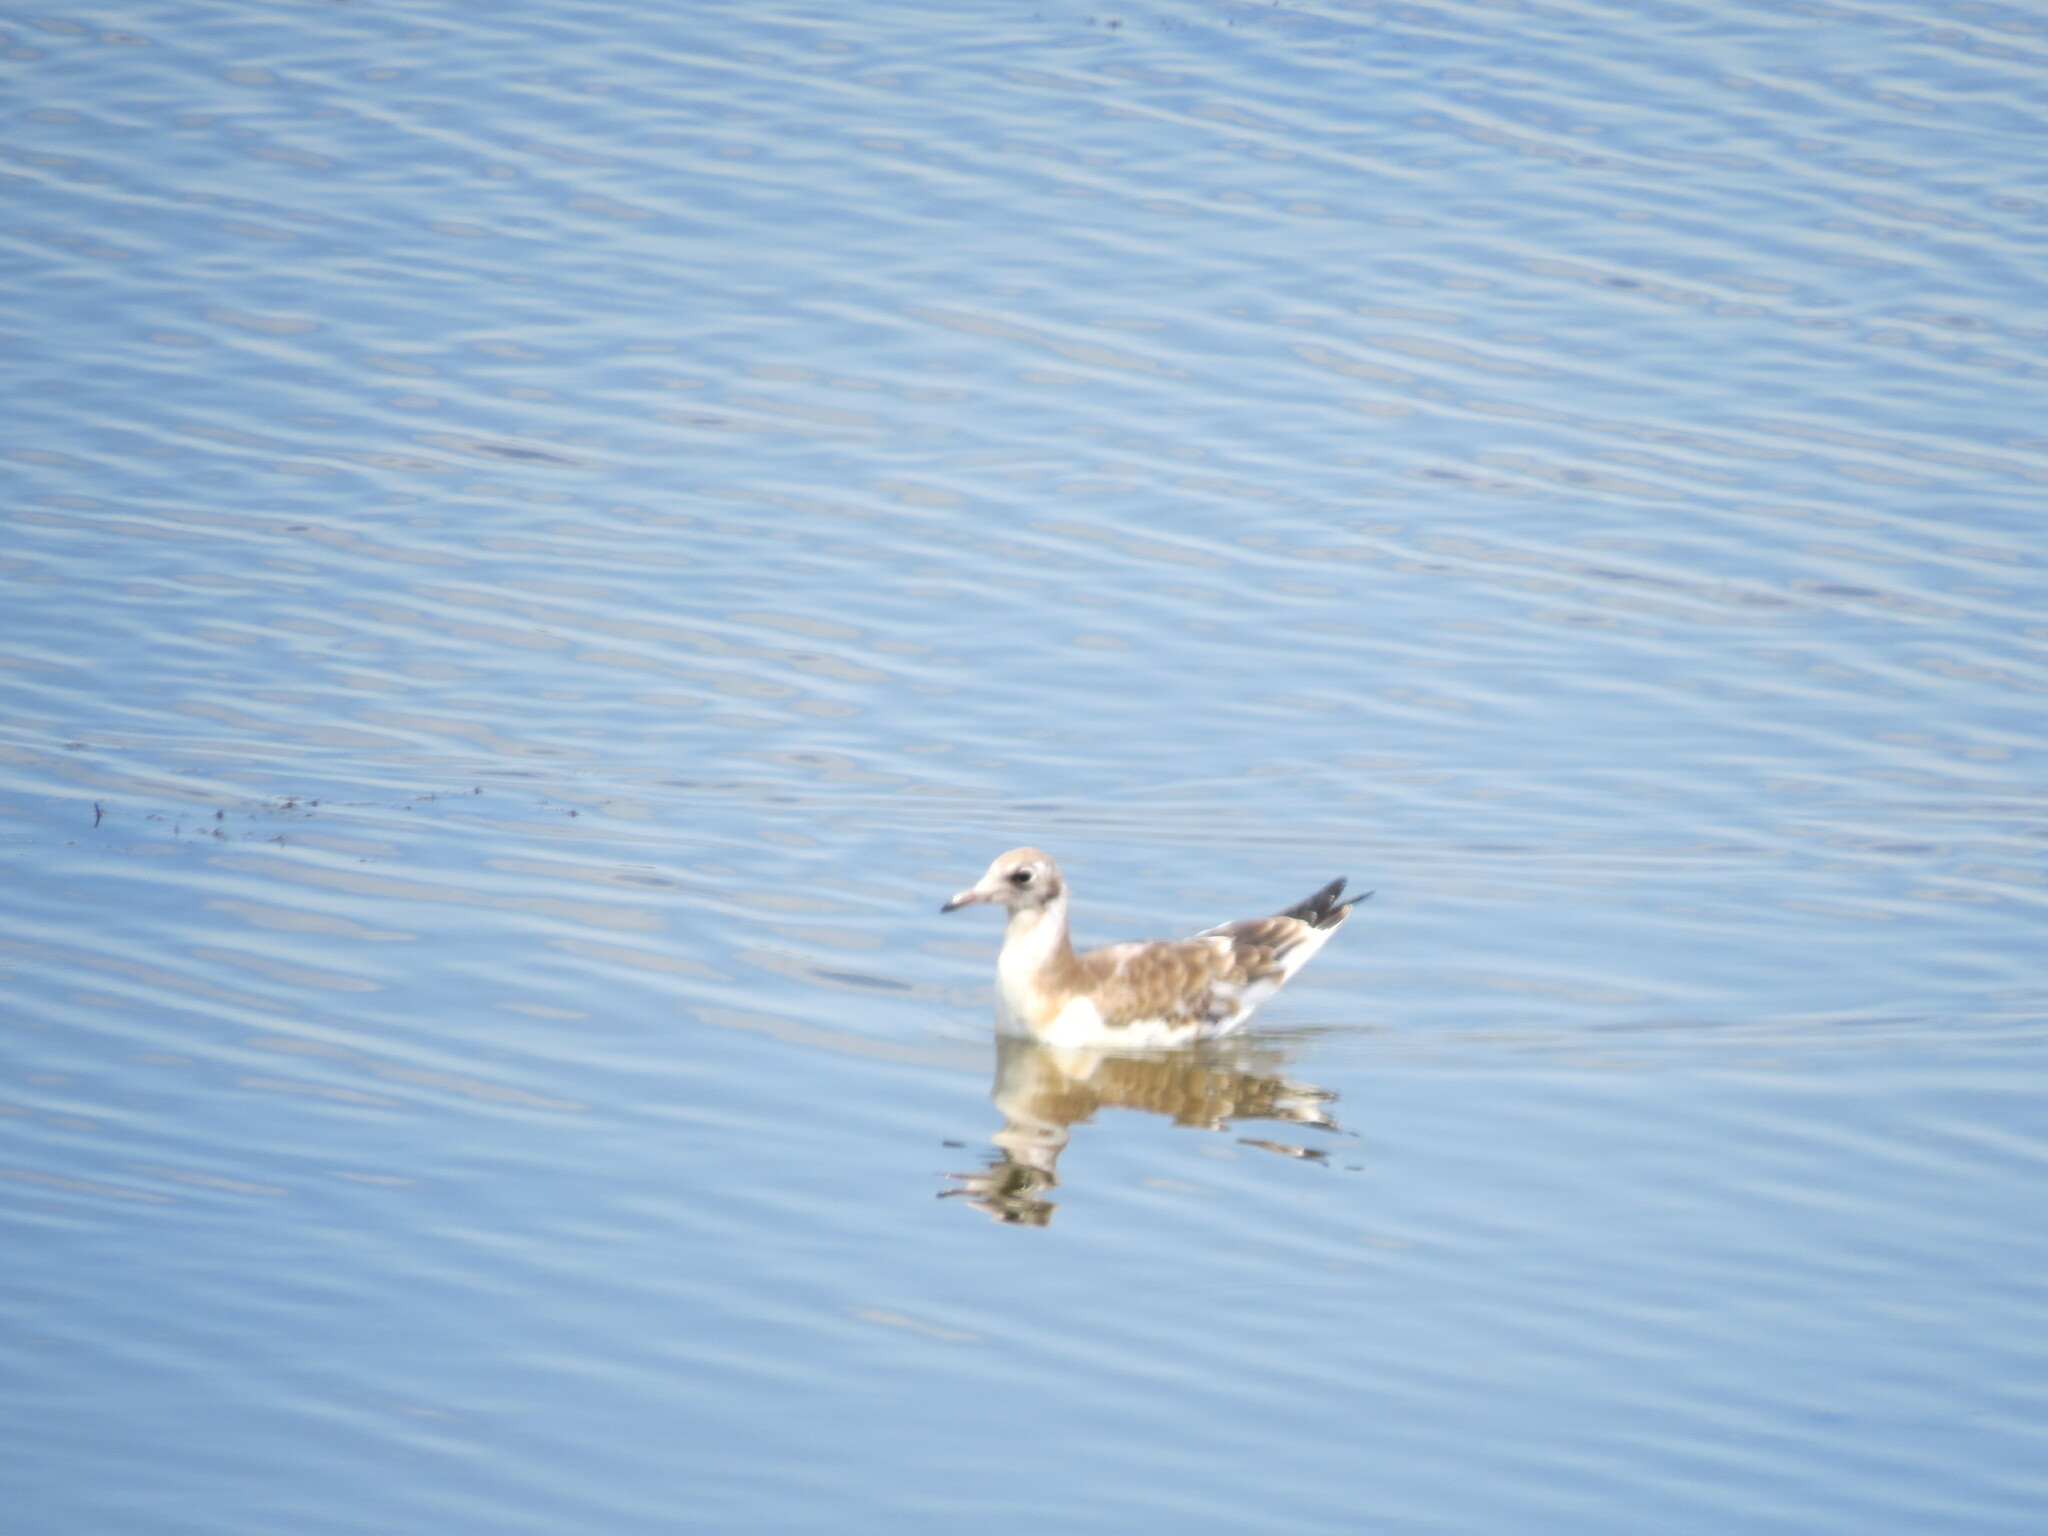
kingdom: Animalia
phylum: Chordata
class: Aves
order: Charadriiformes
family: Laridae
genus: Chroicocephalus
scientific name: Chroicocephalus ridibundus
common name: Black-headed gull
